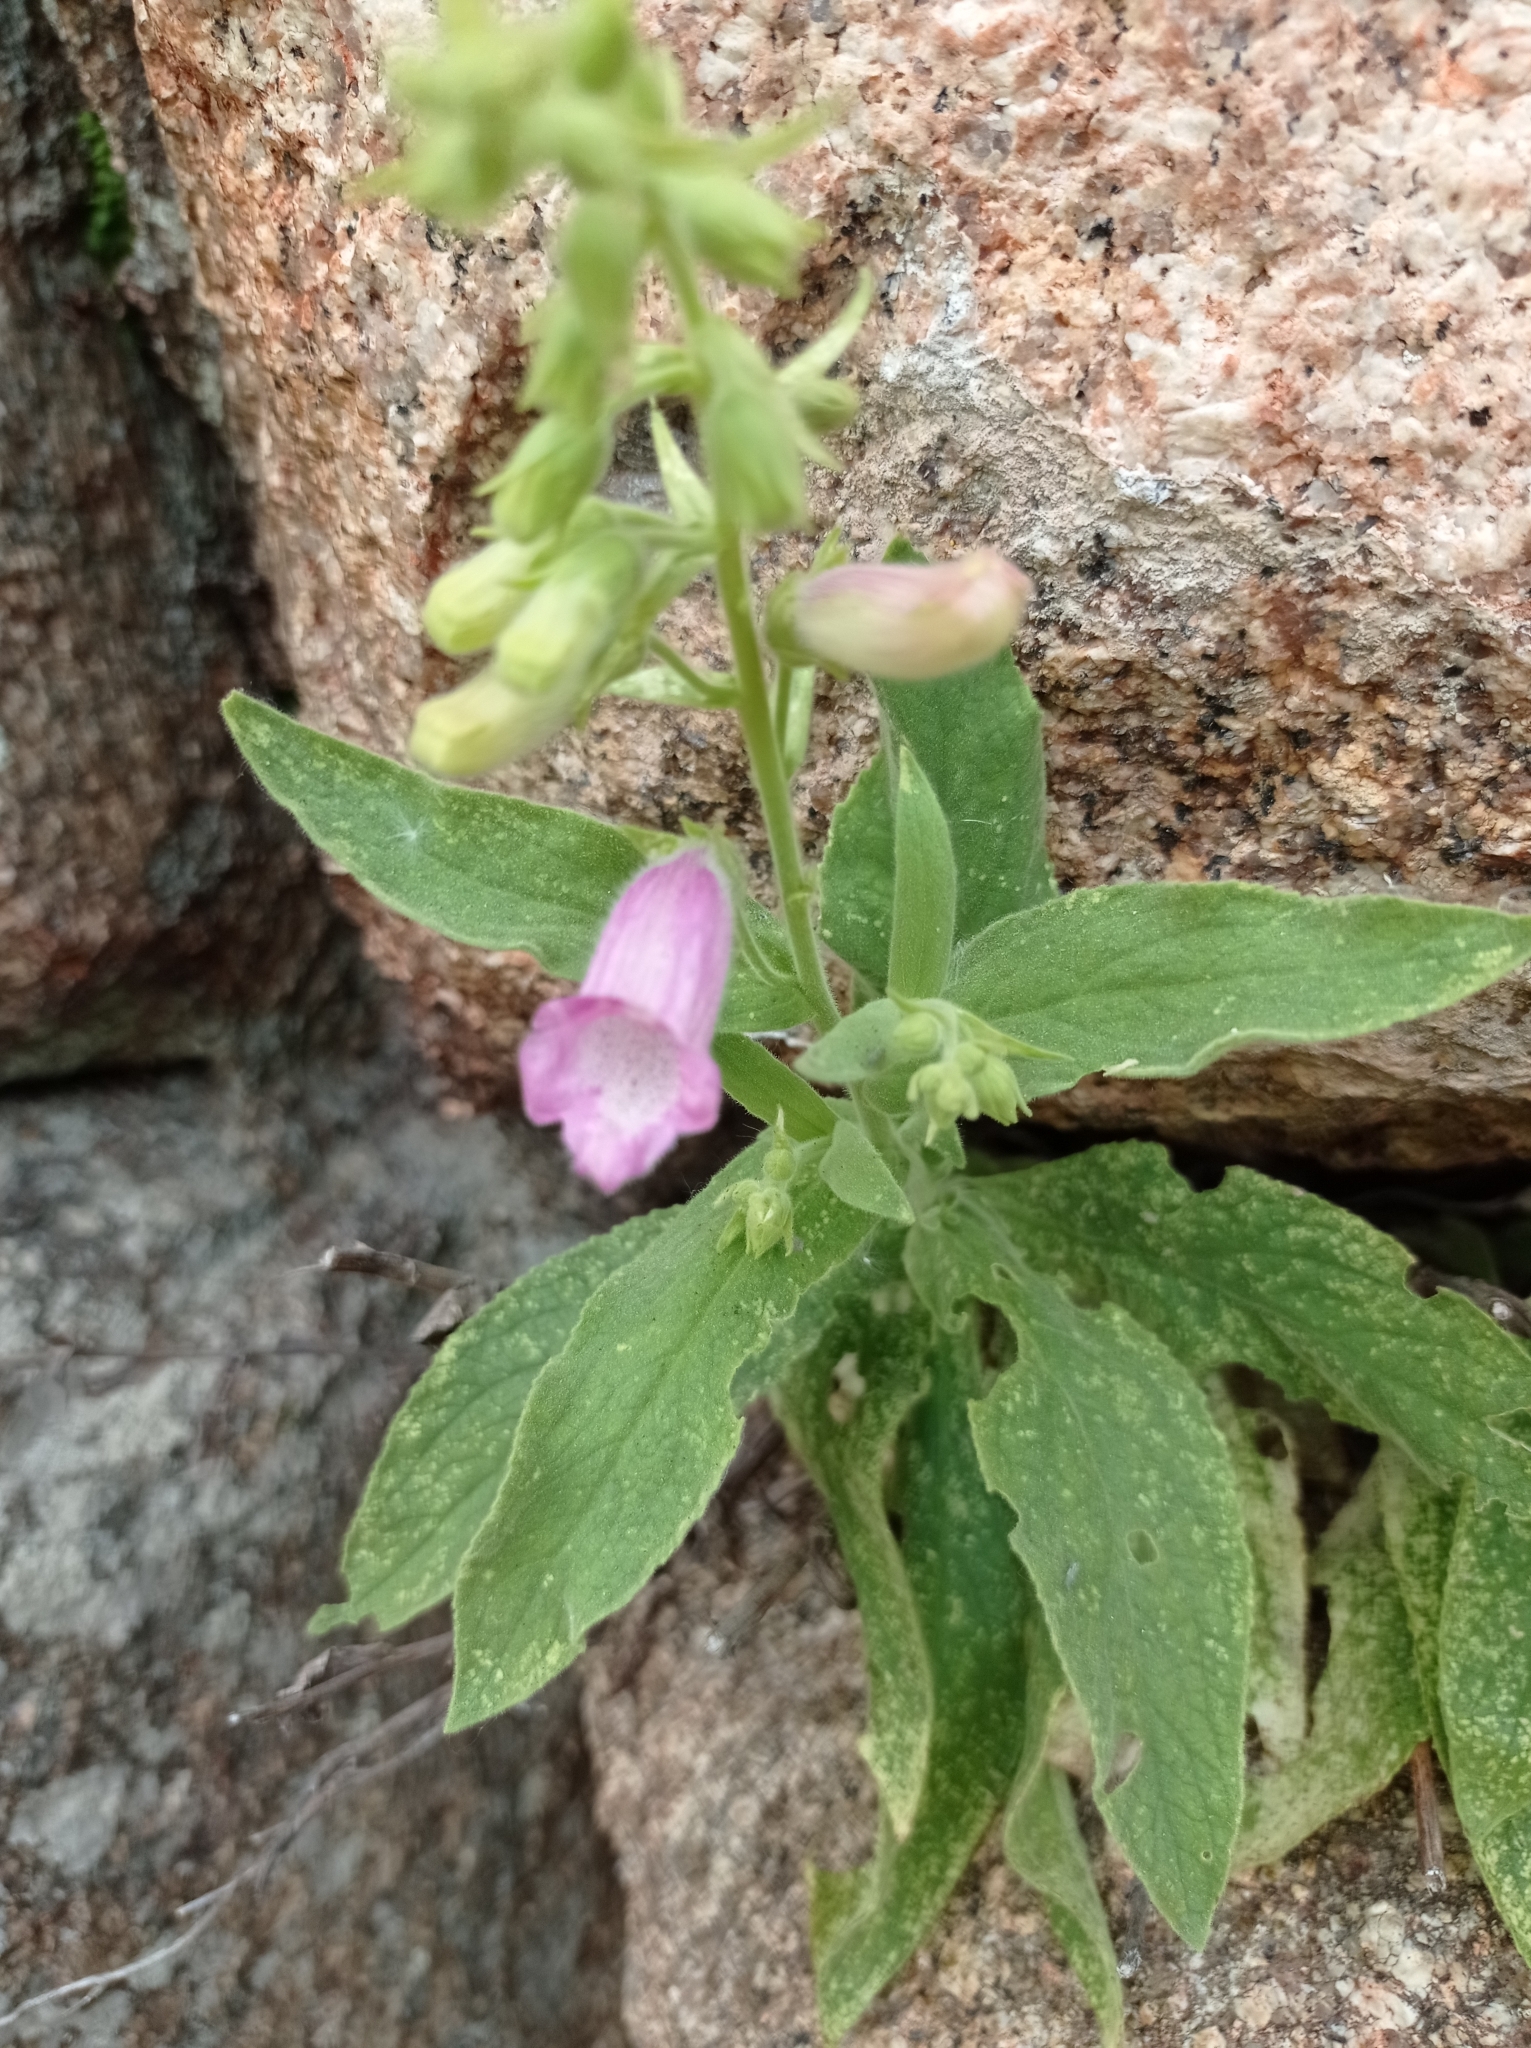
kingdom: Plantae
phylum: Tracheophyta
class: Magnoliopsida
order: Lamiales
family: Plantaginaceae
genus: Digitalis
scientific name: Digitalis thapsi
